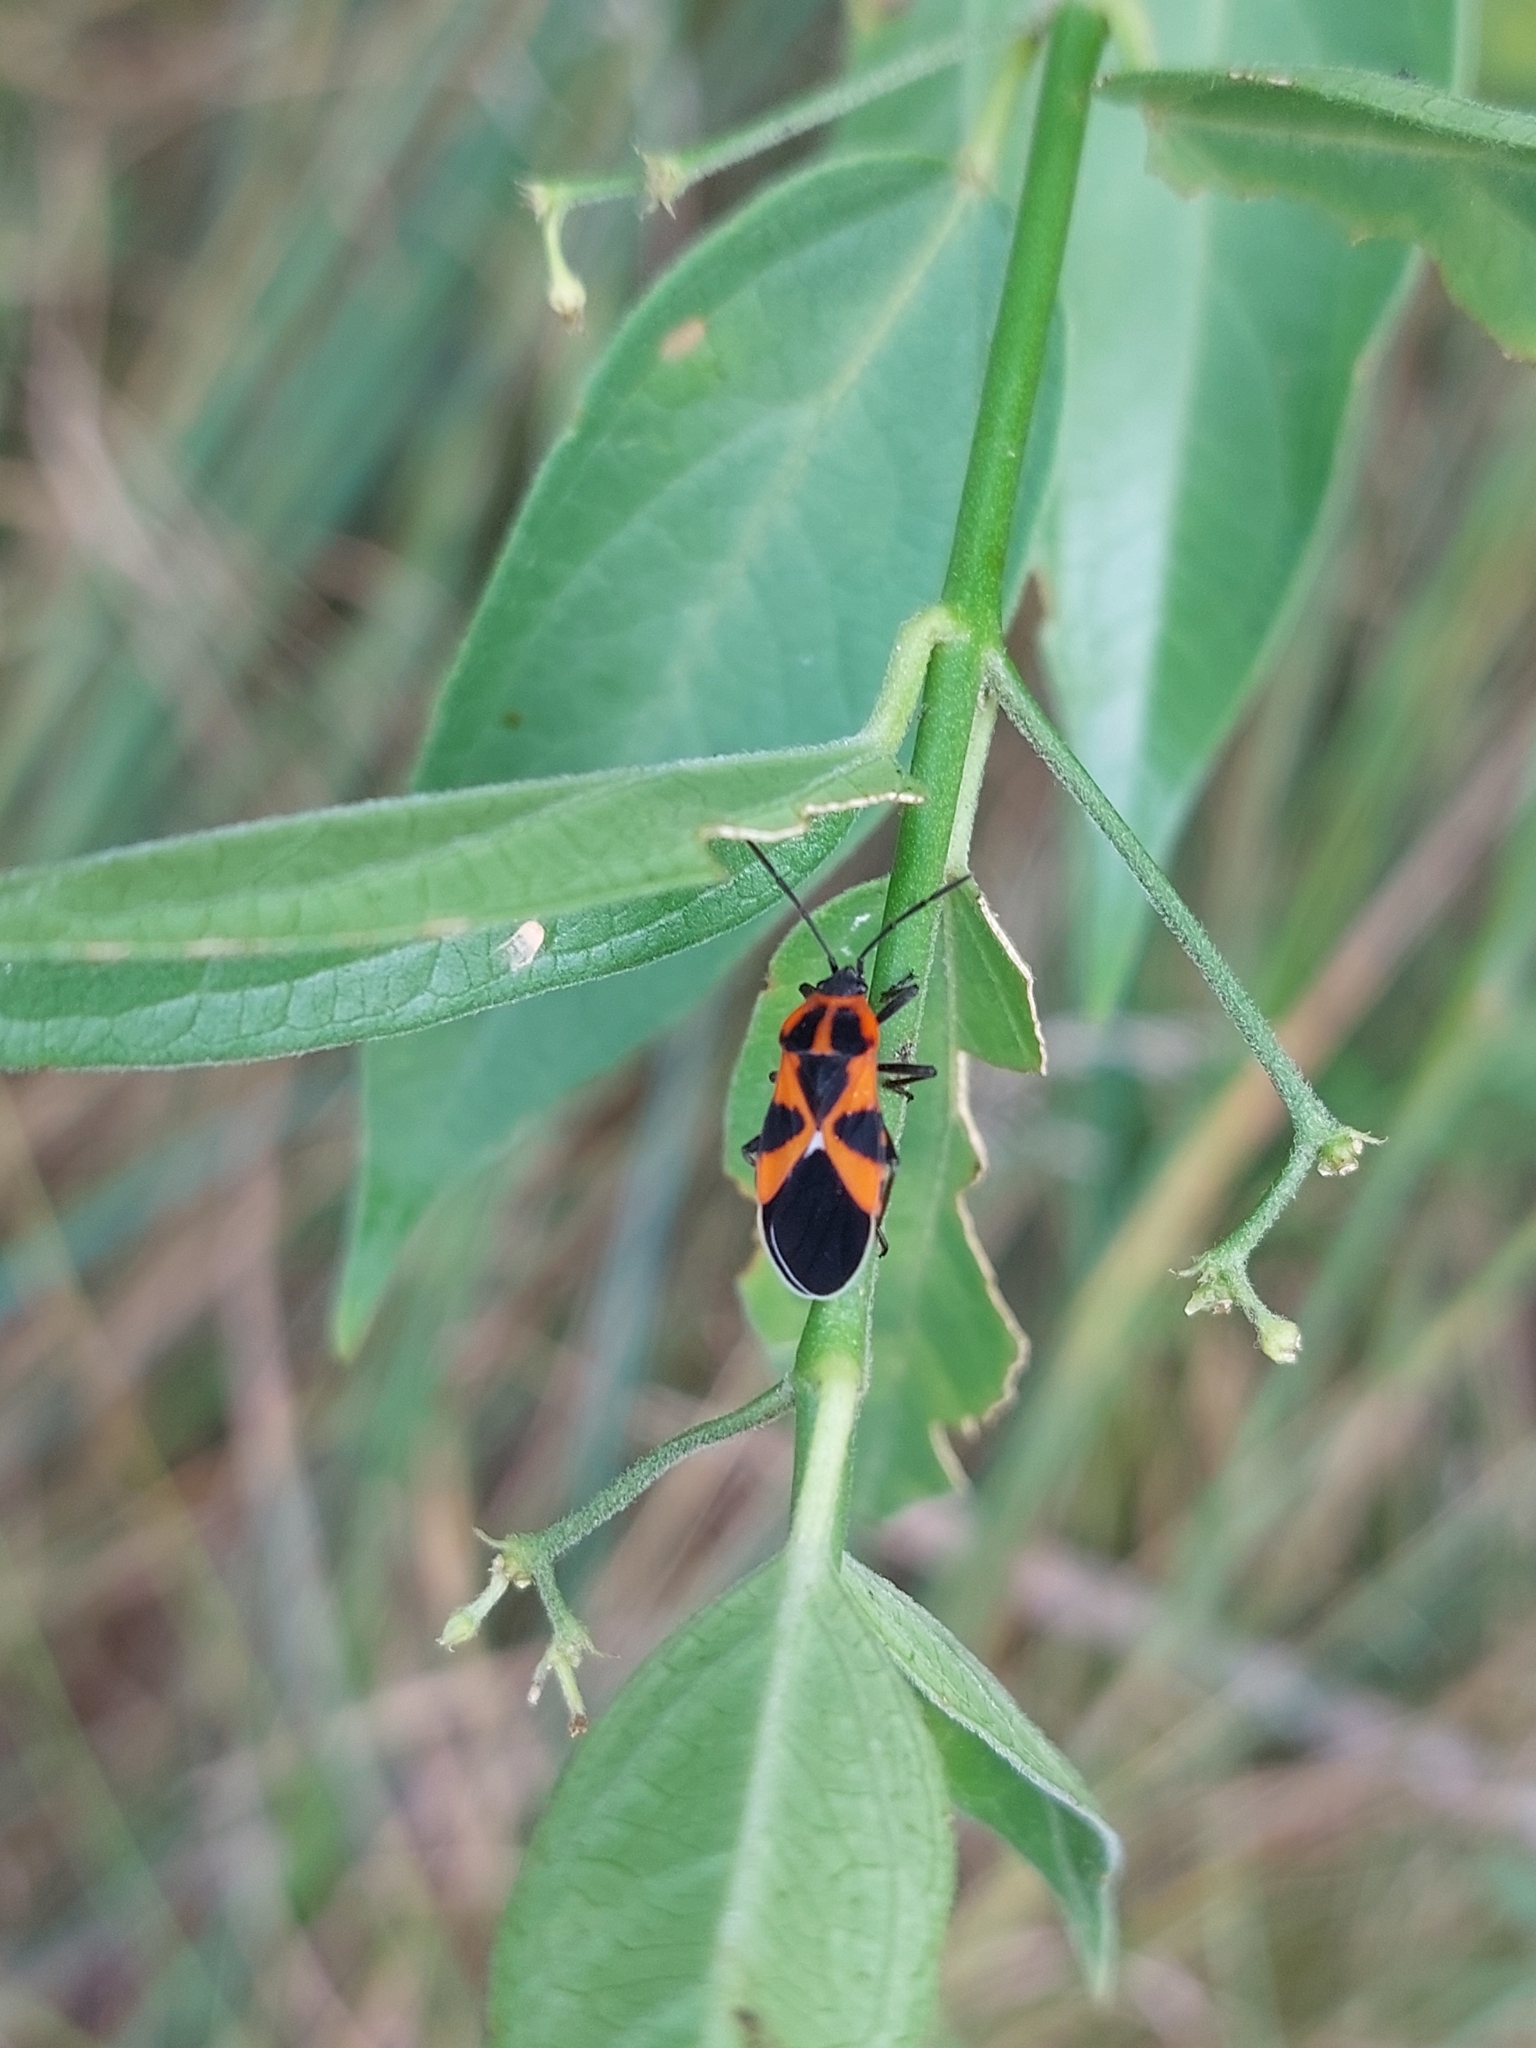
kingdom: Animalia
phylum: Arthropoda
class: Insecta
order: Hemiptera
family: Lygaeidae
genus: Tropidothorax
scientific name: Tropidothorax leucopterus
